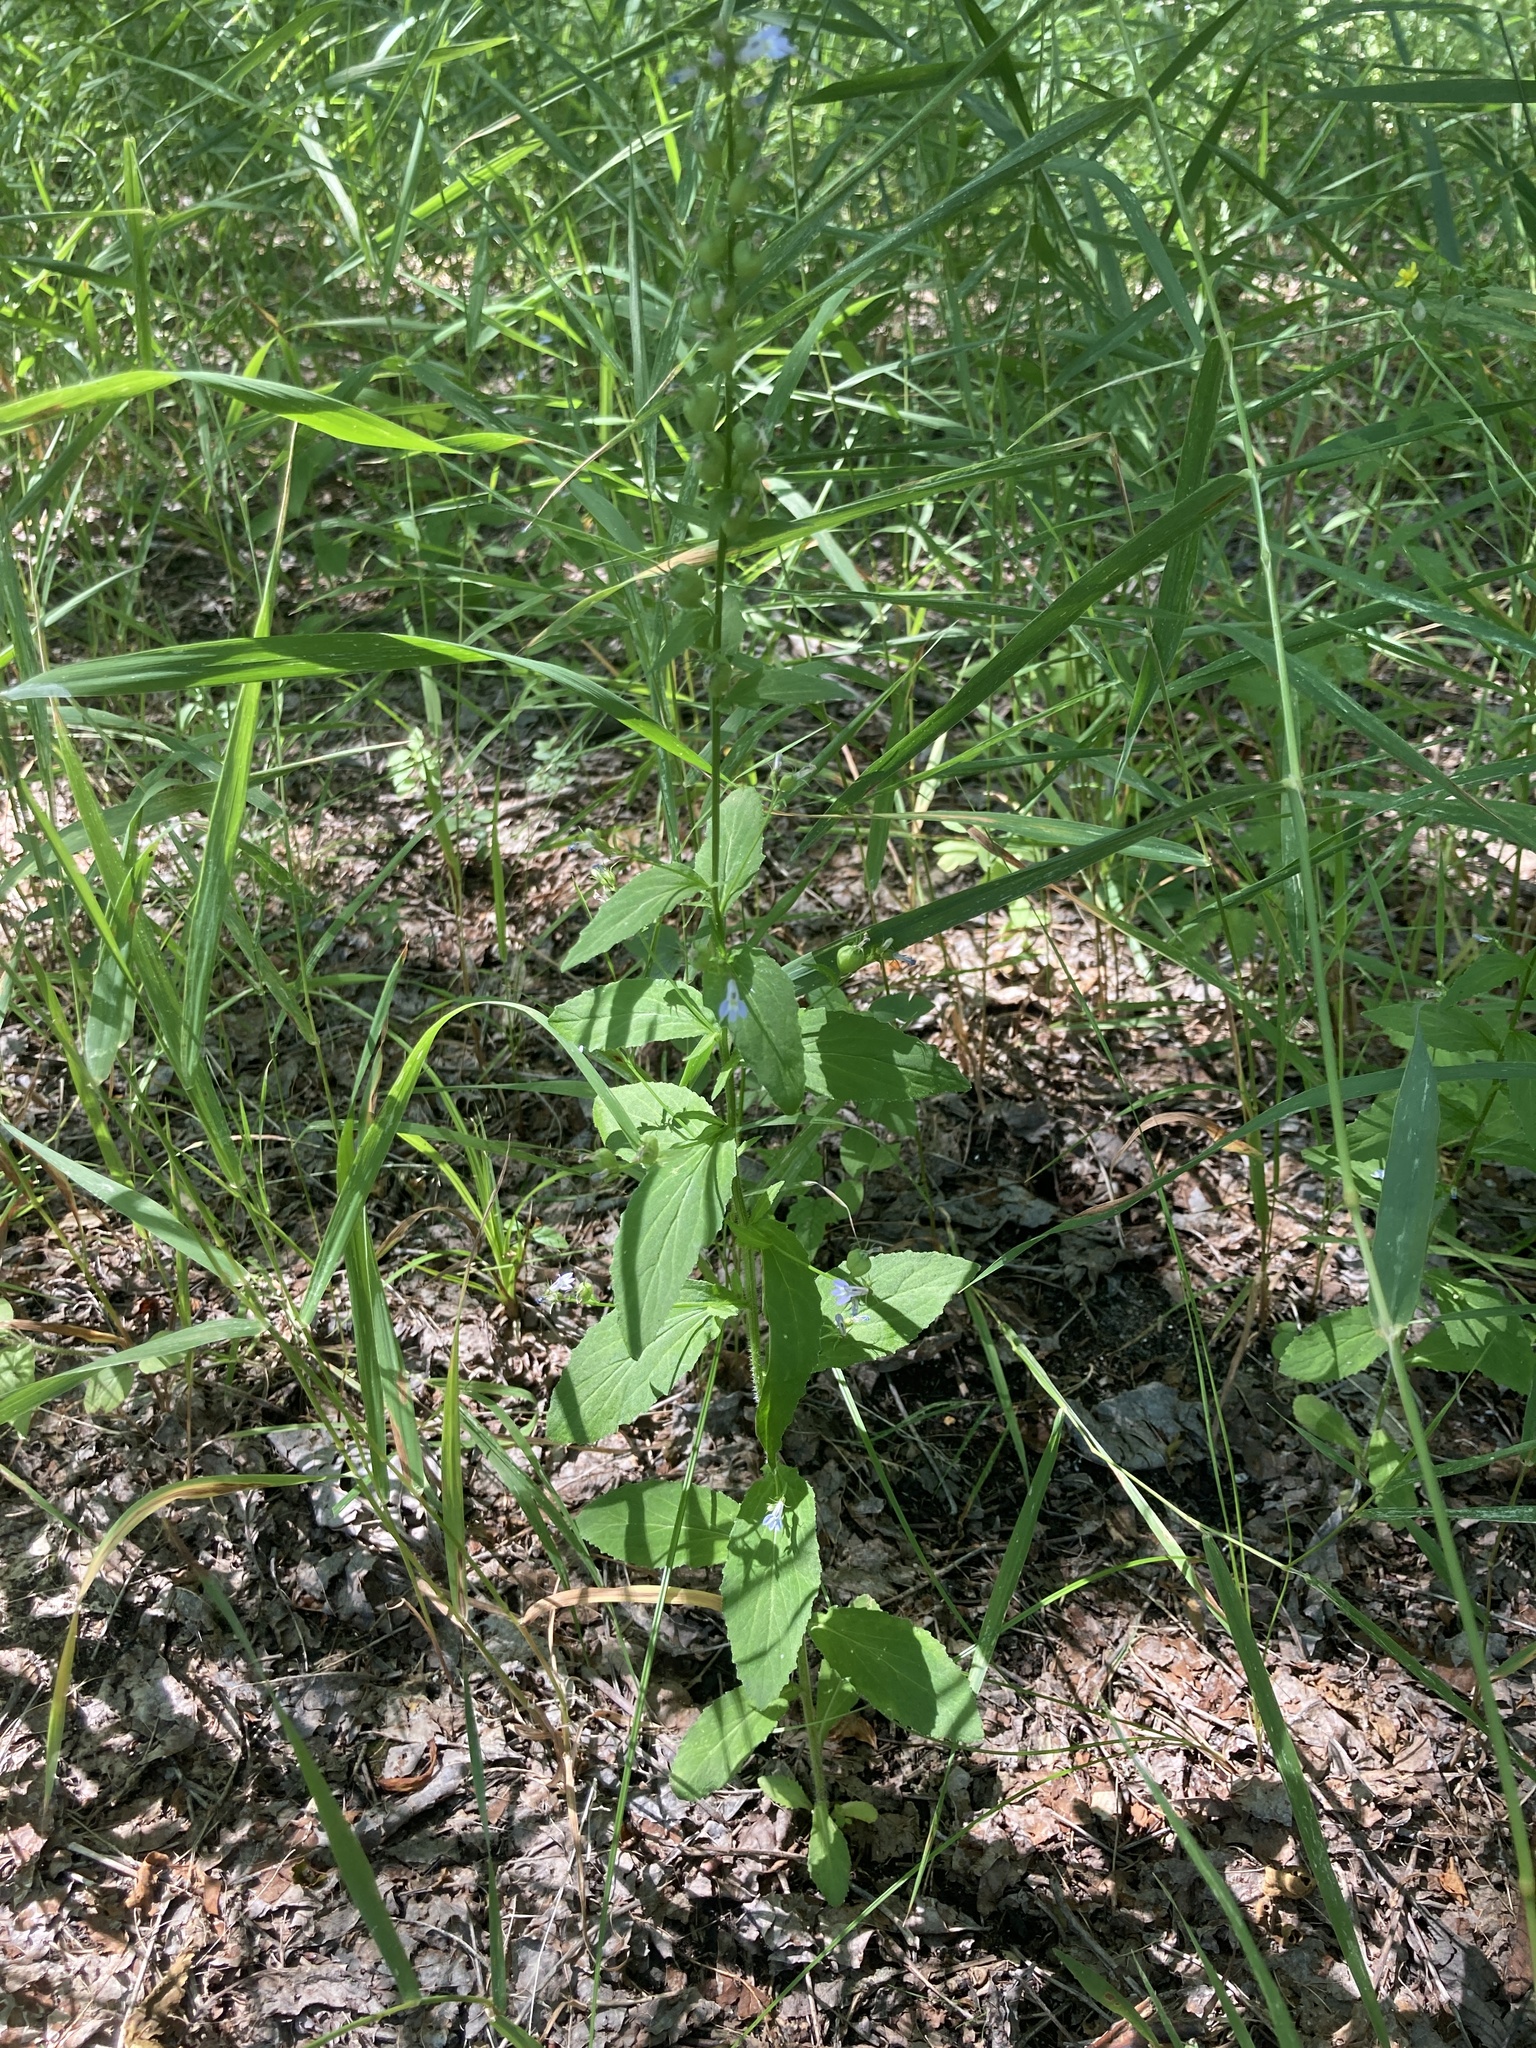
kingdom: Plantae
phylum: Tracheophyta
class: Magnoliopsida
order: Asterales
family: Campanulaceae
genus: Lobelia
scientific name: Lobelia inflata
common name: Indian tobacco
